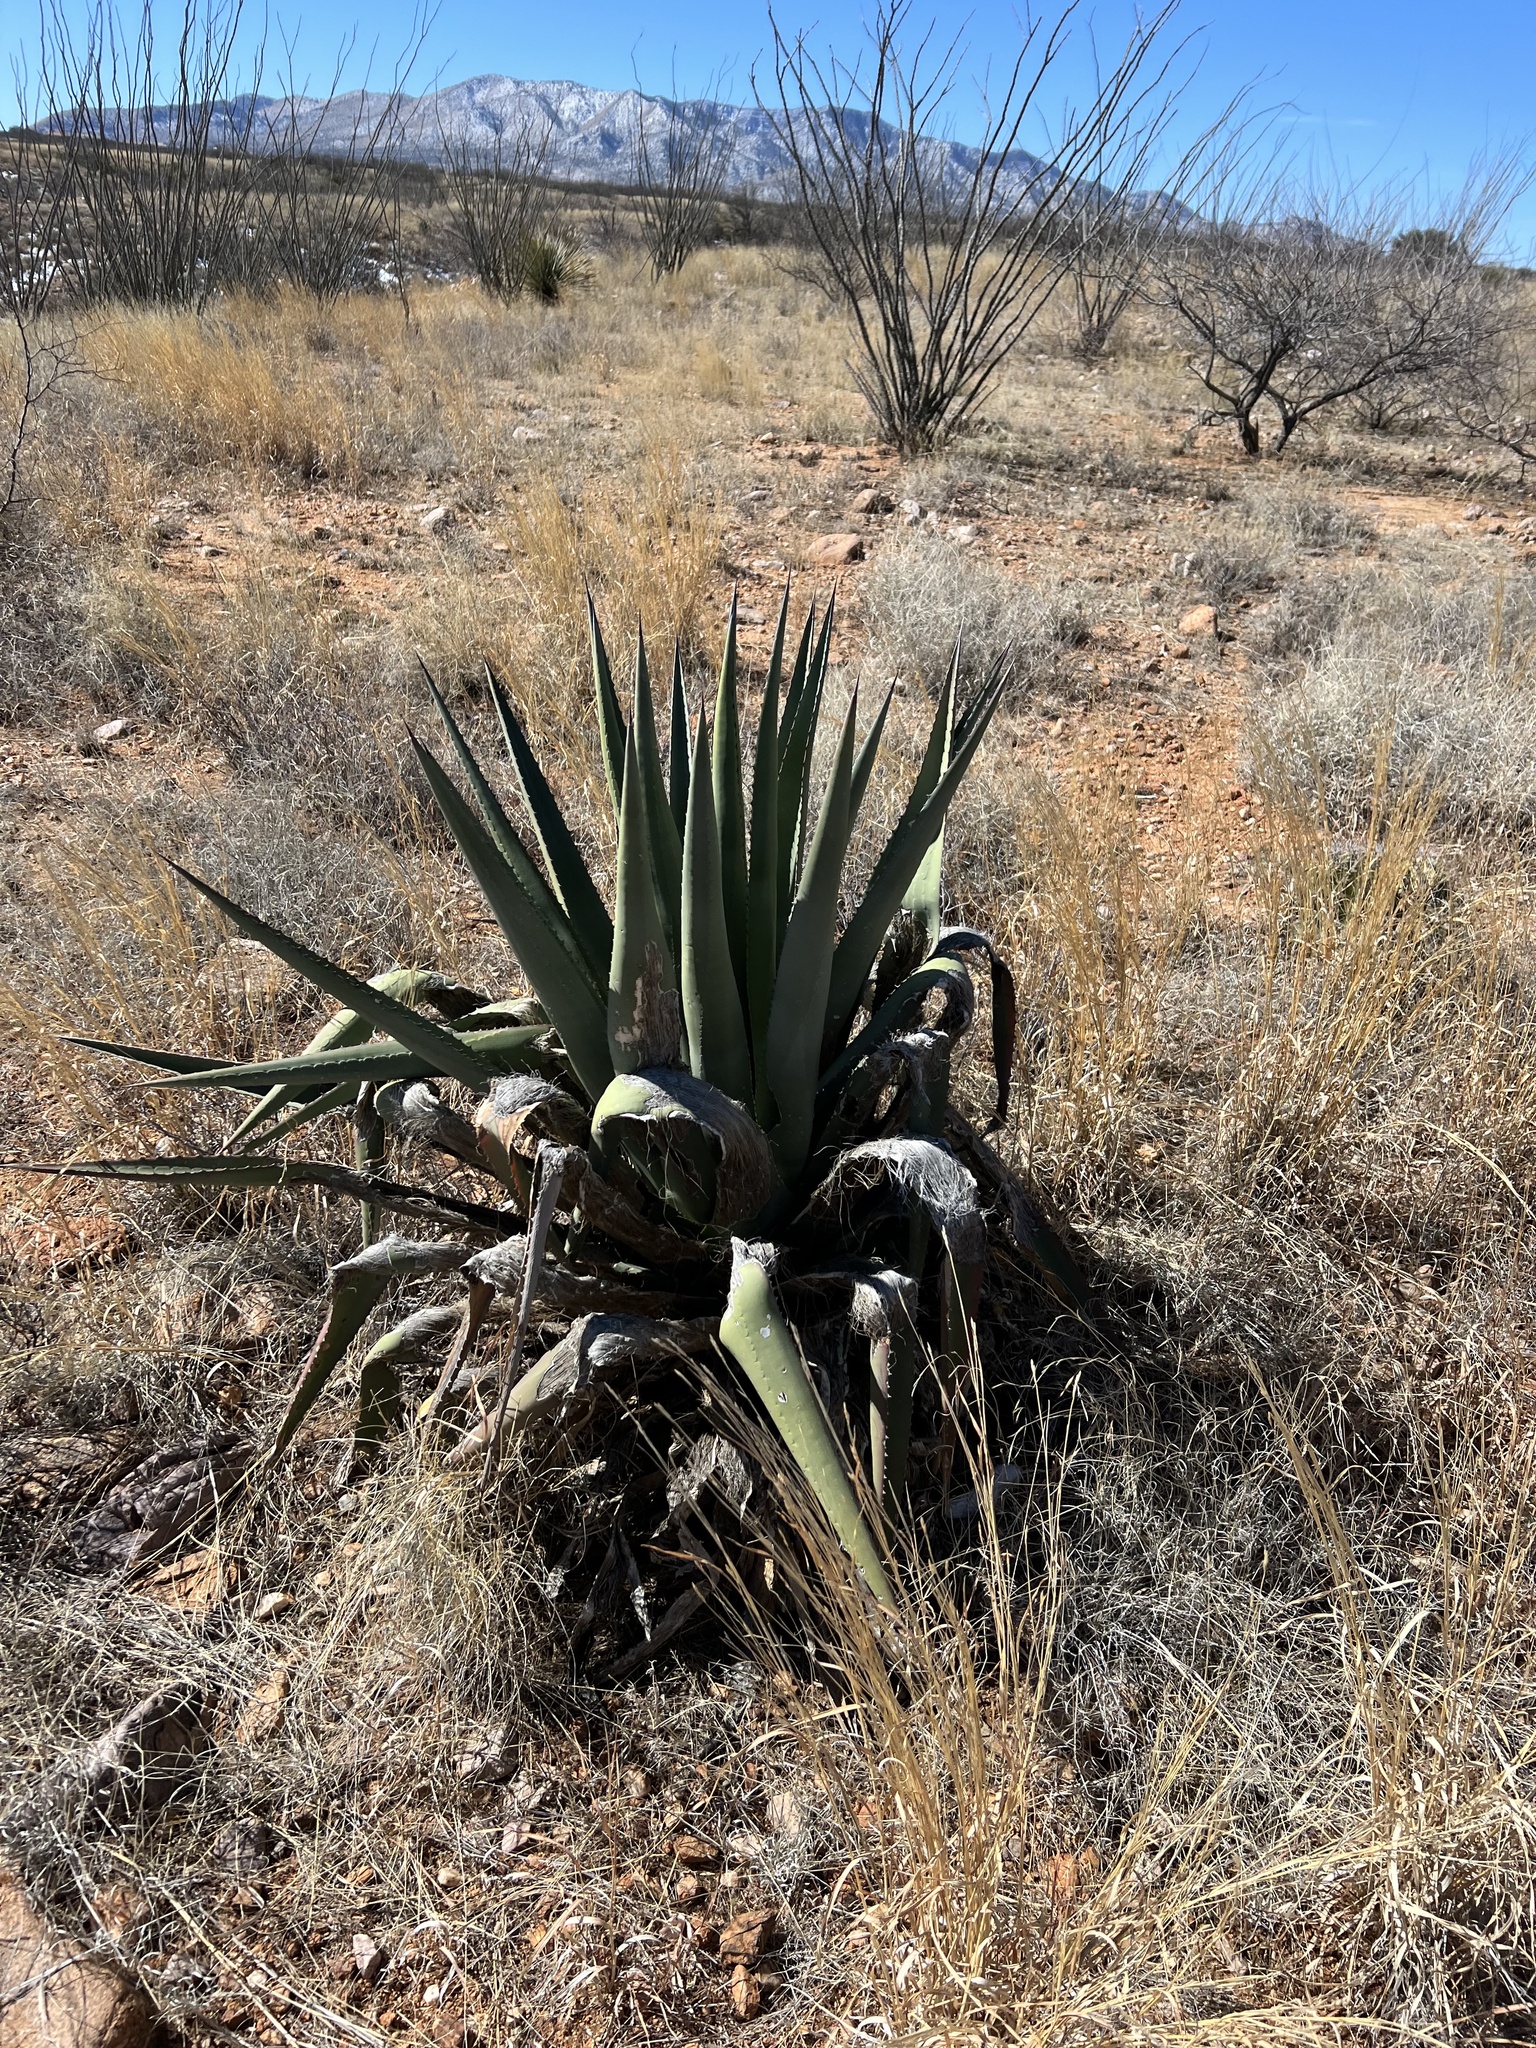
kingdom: Plantae
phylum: Tracheophyta
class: Liliopsida
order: Asparagales
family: Asparagaceae
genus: Agave
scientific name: Agave palmeri
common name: Palmer agave
